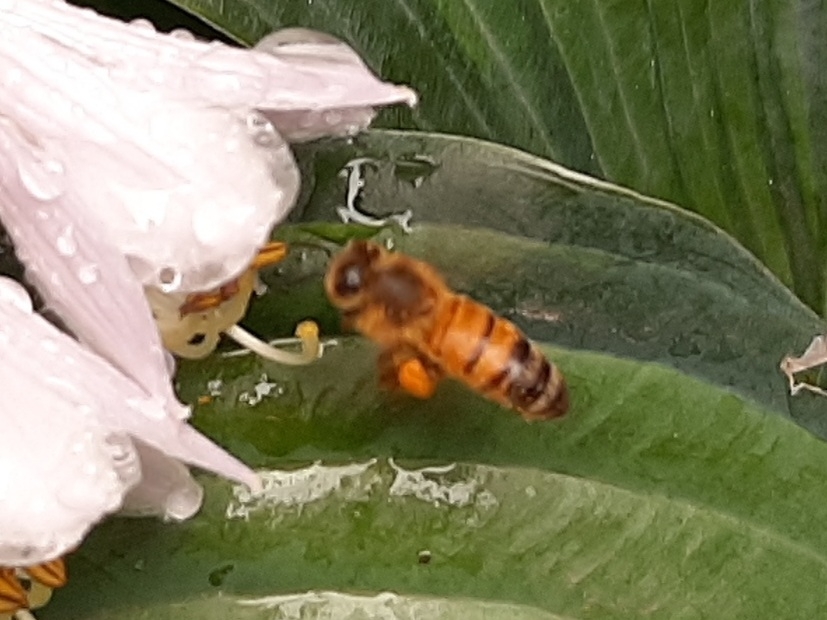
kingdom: Animalia
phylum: Arthropoda
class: Insecta
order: Hymenoptera
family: Apidae
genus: Apis
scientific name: Apis mellifera
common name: Honey bee
